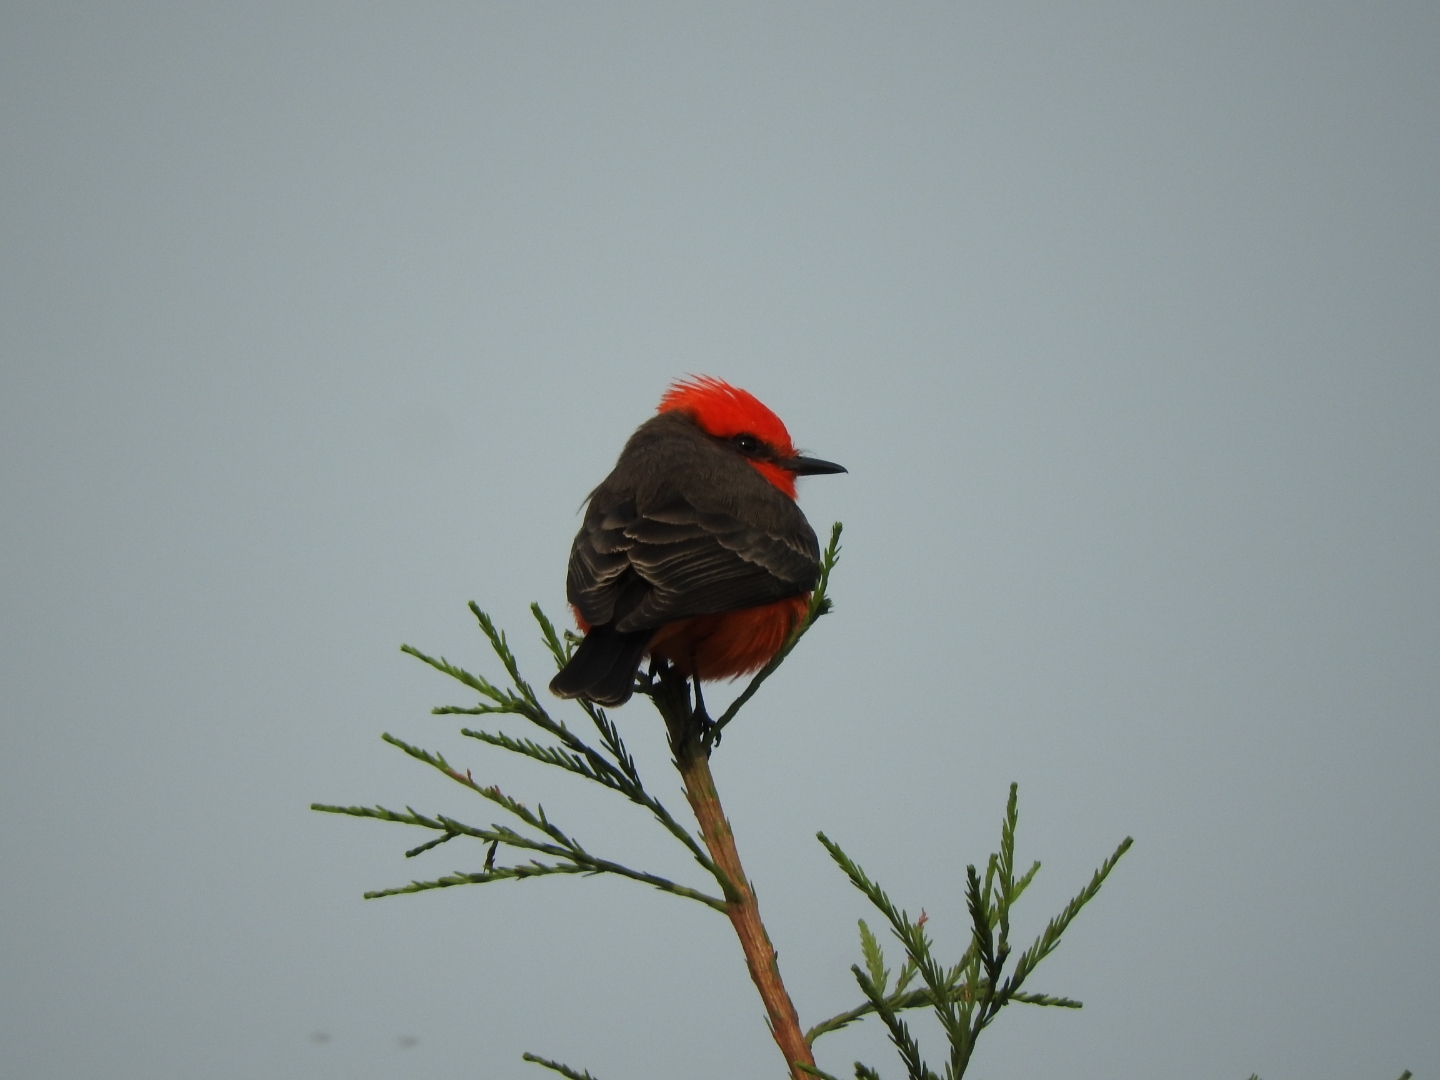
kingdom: Animalia
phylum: Chordata
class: Aves
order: Passeriformes
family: Tyrannidae
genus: Pyrocephalus
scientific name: Pyrocephalus rubinus
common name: Vermilion flycatcher
